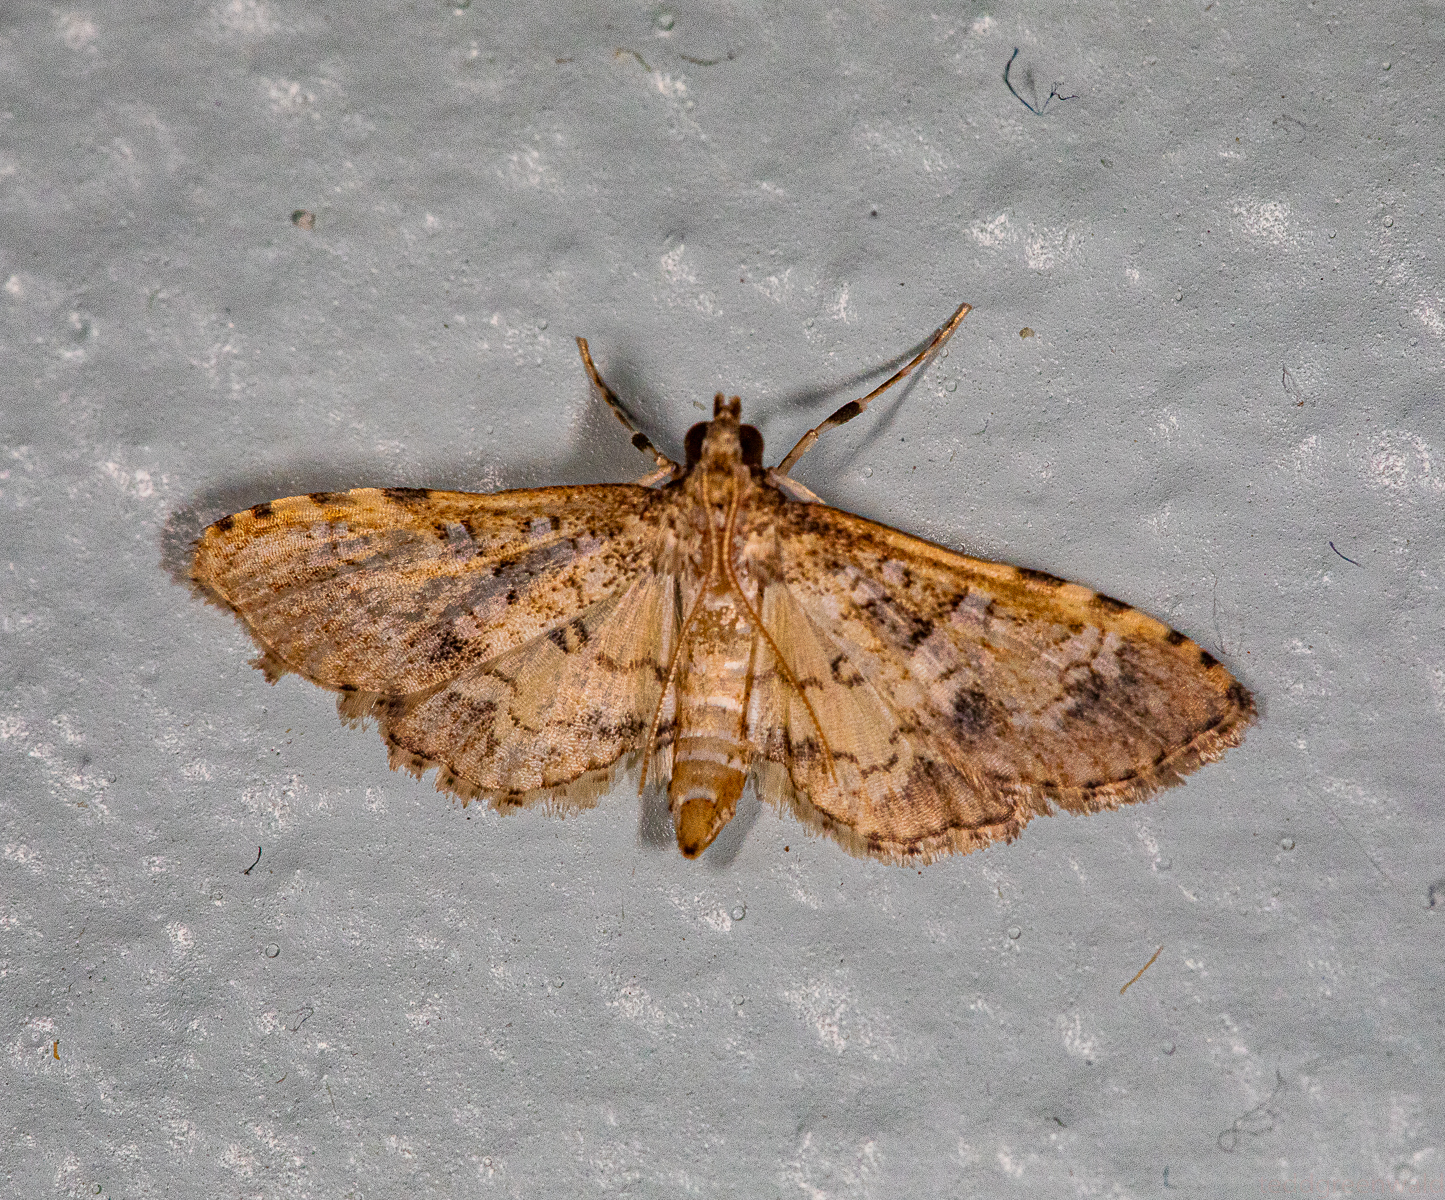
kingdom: Animalia
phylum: Arthropoda
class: Insecta
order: Lepidoptera
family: Crambidae
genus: Samea
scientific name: Samea multiplicalis
